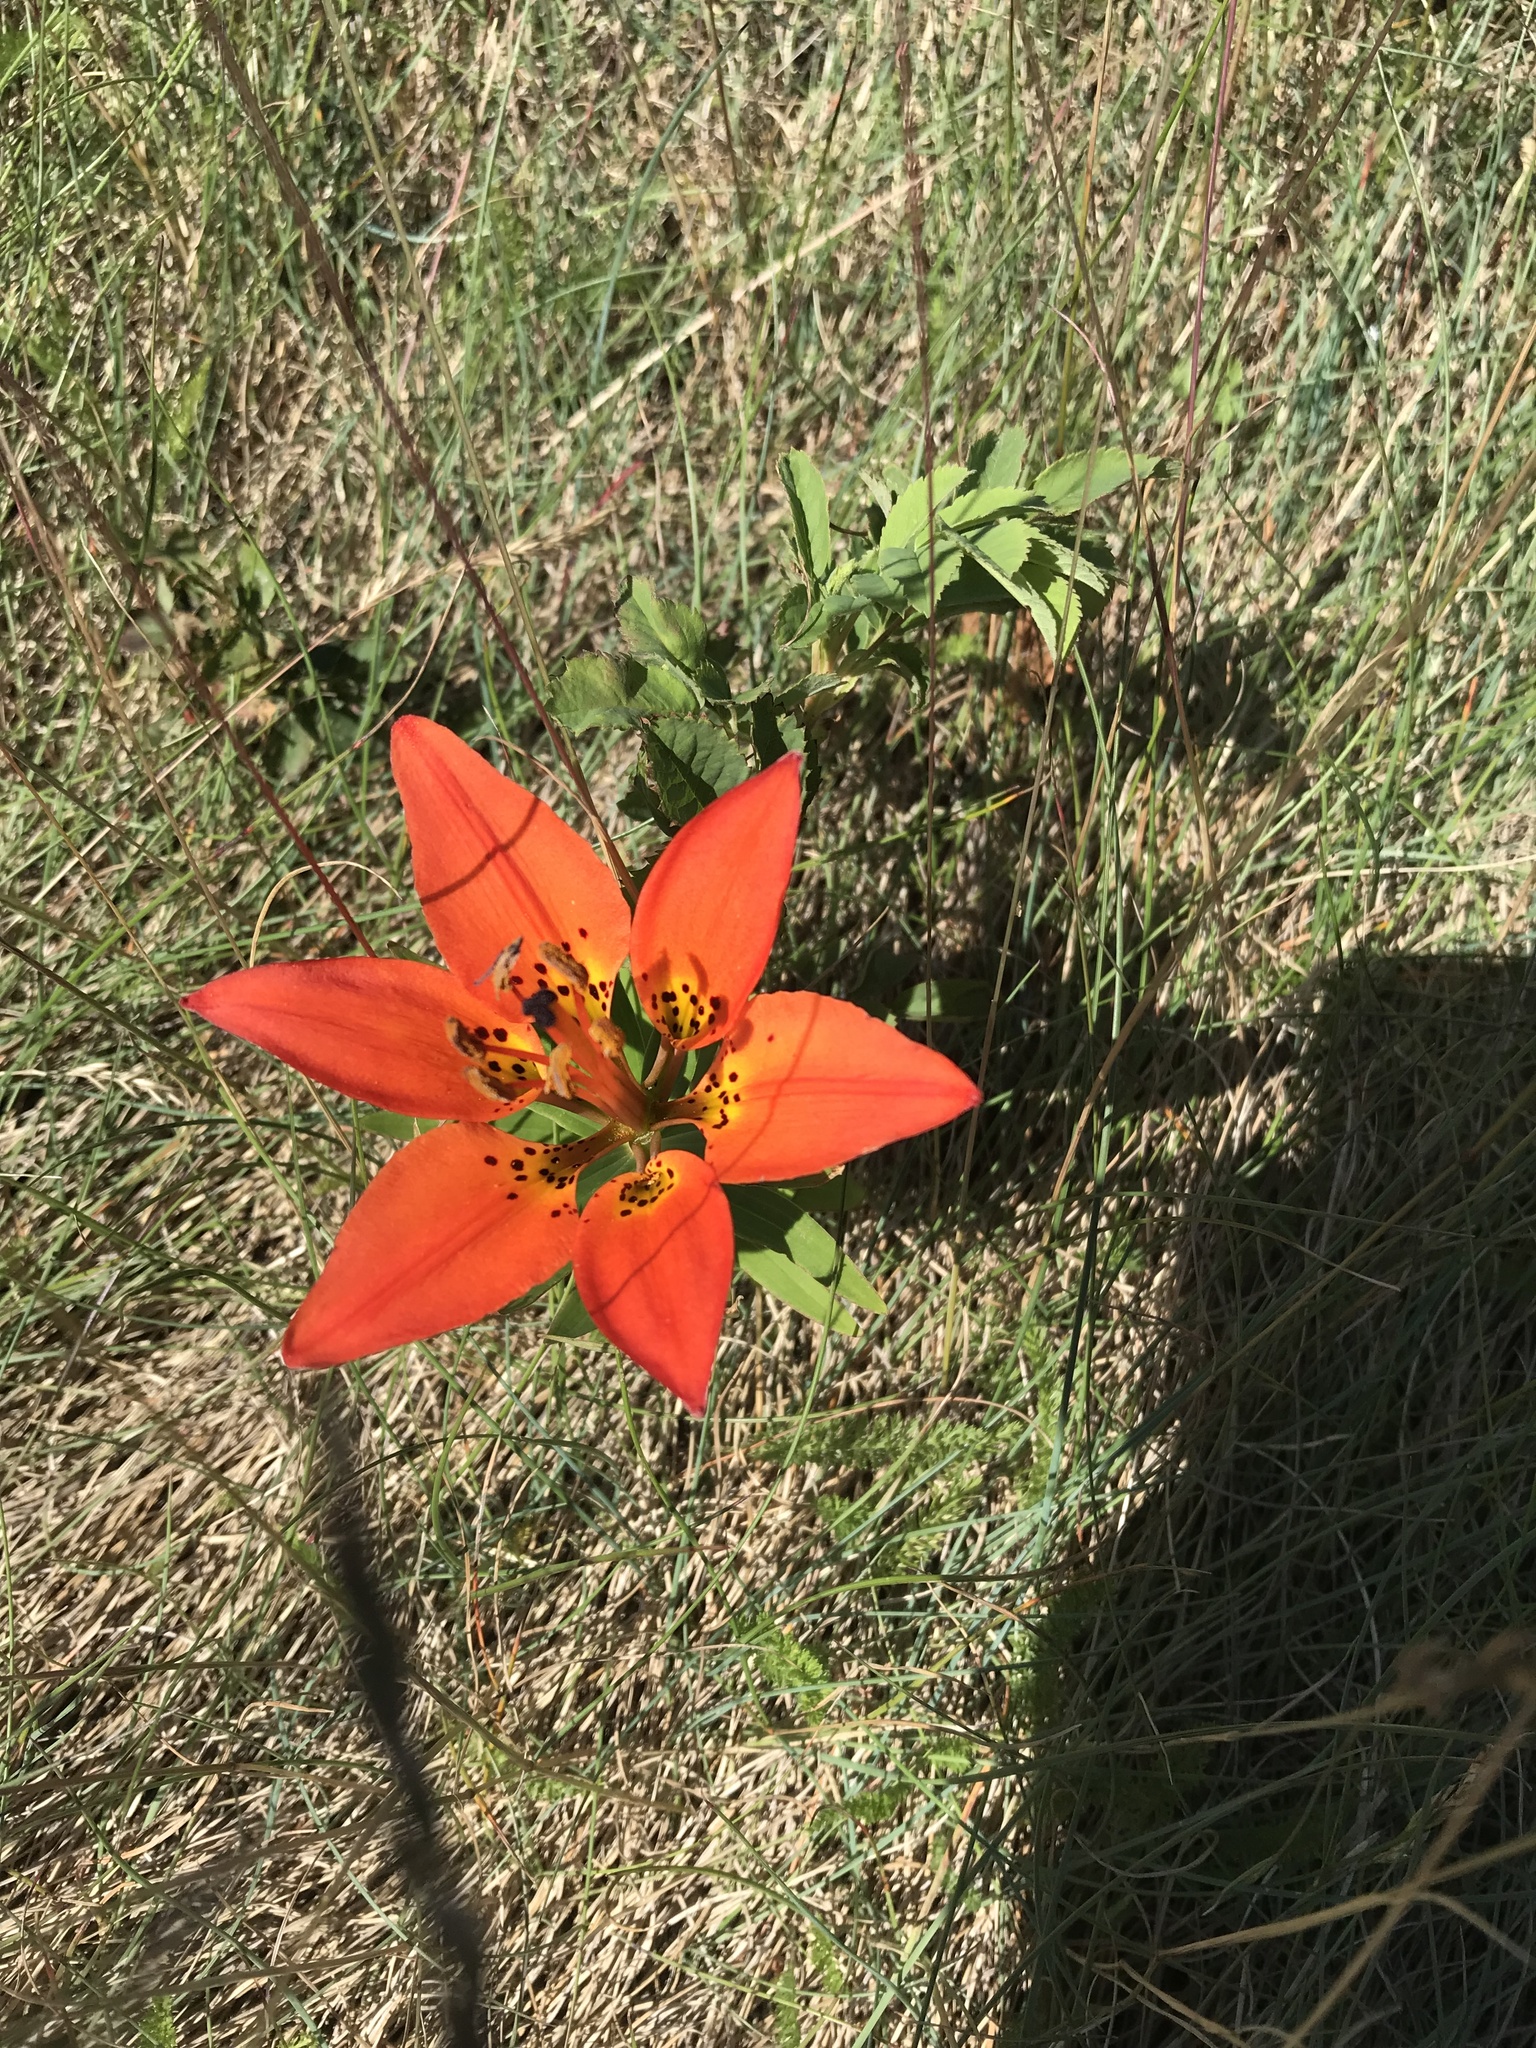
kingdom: Plantae
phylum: Tracheophyta
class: Liliopsida
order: Liliales
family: Liliaceae
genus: Lilium
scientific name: Lilium philadelphicum
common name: Red lily
